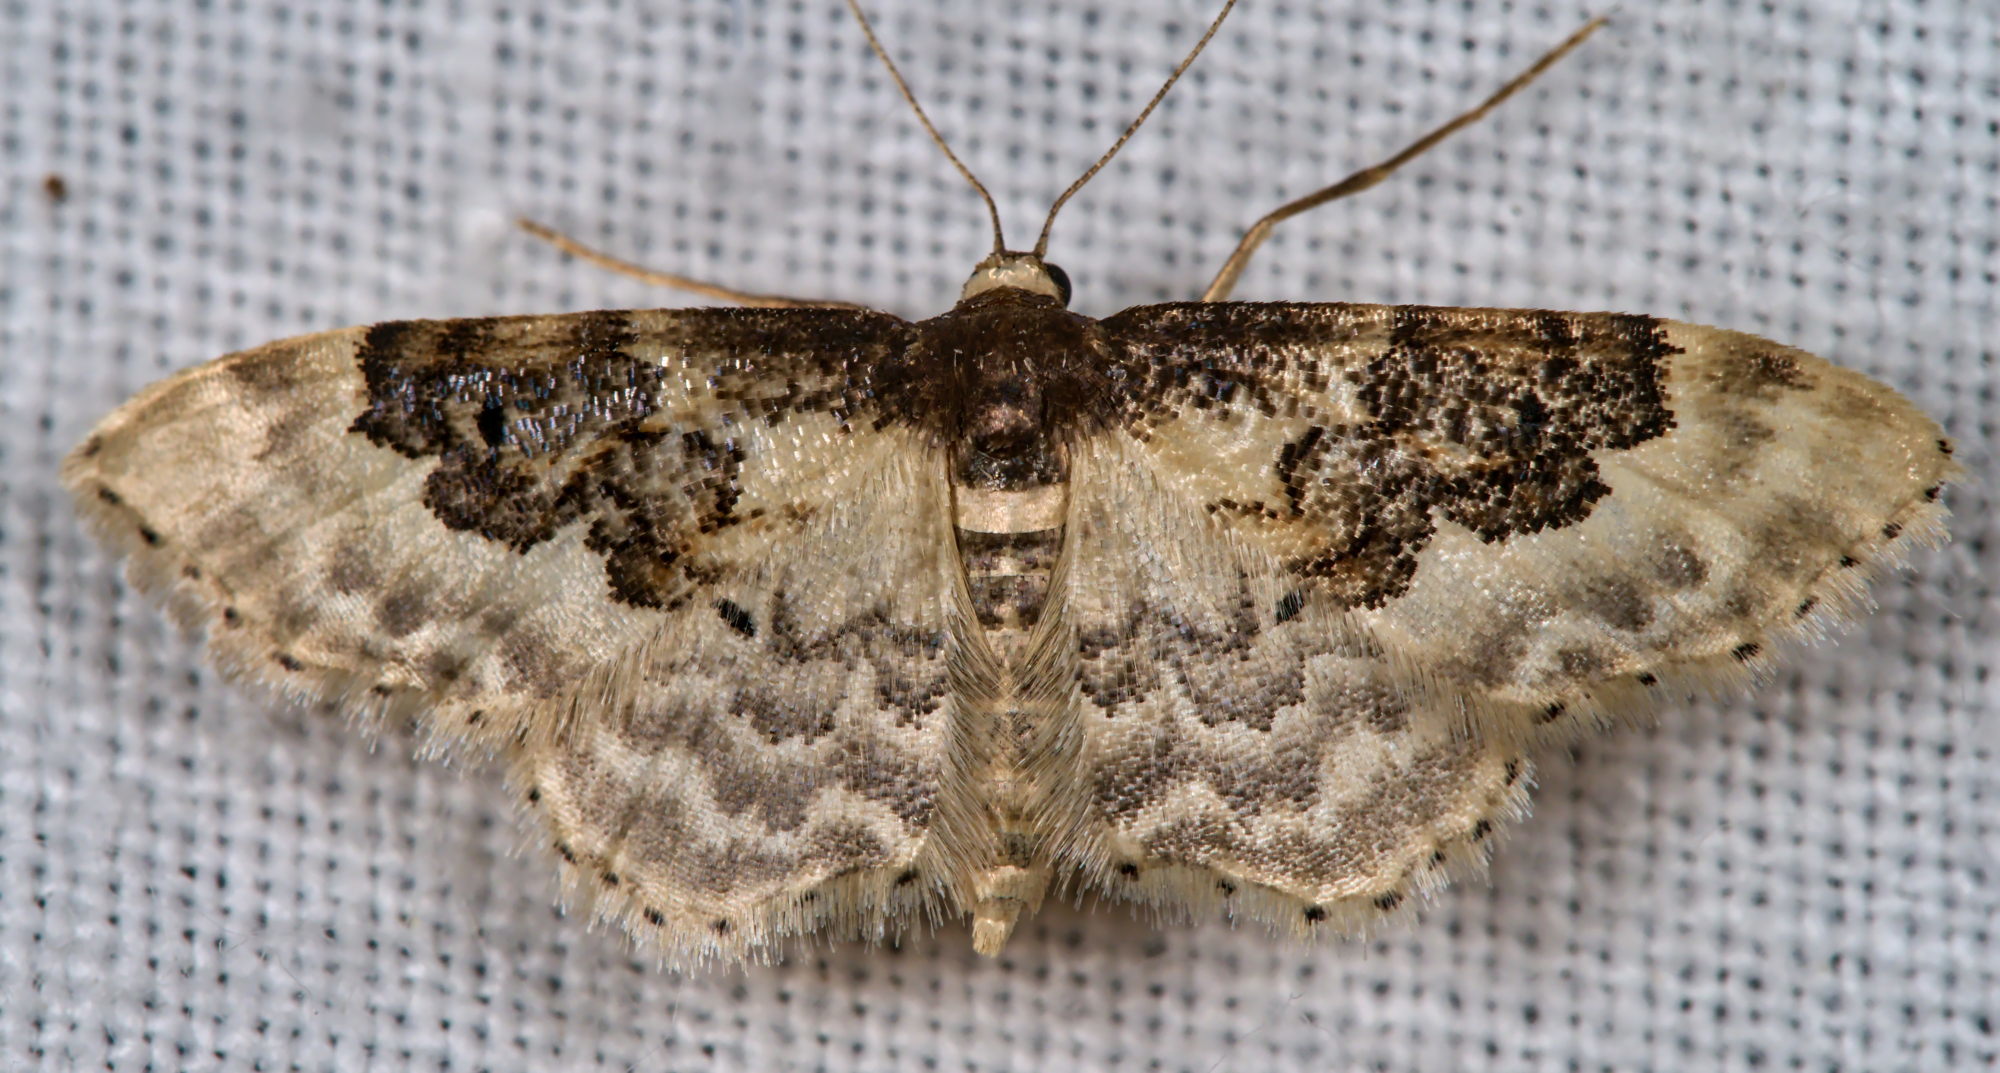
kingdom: Animalia
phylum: Arthropoda
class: Insecta
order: Lepidoptera
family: Geometridae
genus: Idaea
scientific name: Idaea rusticata
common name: Least carpet
